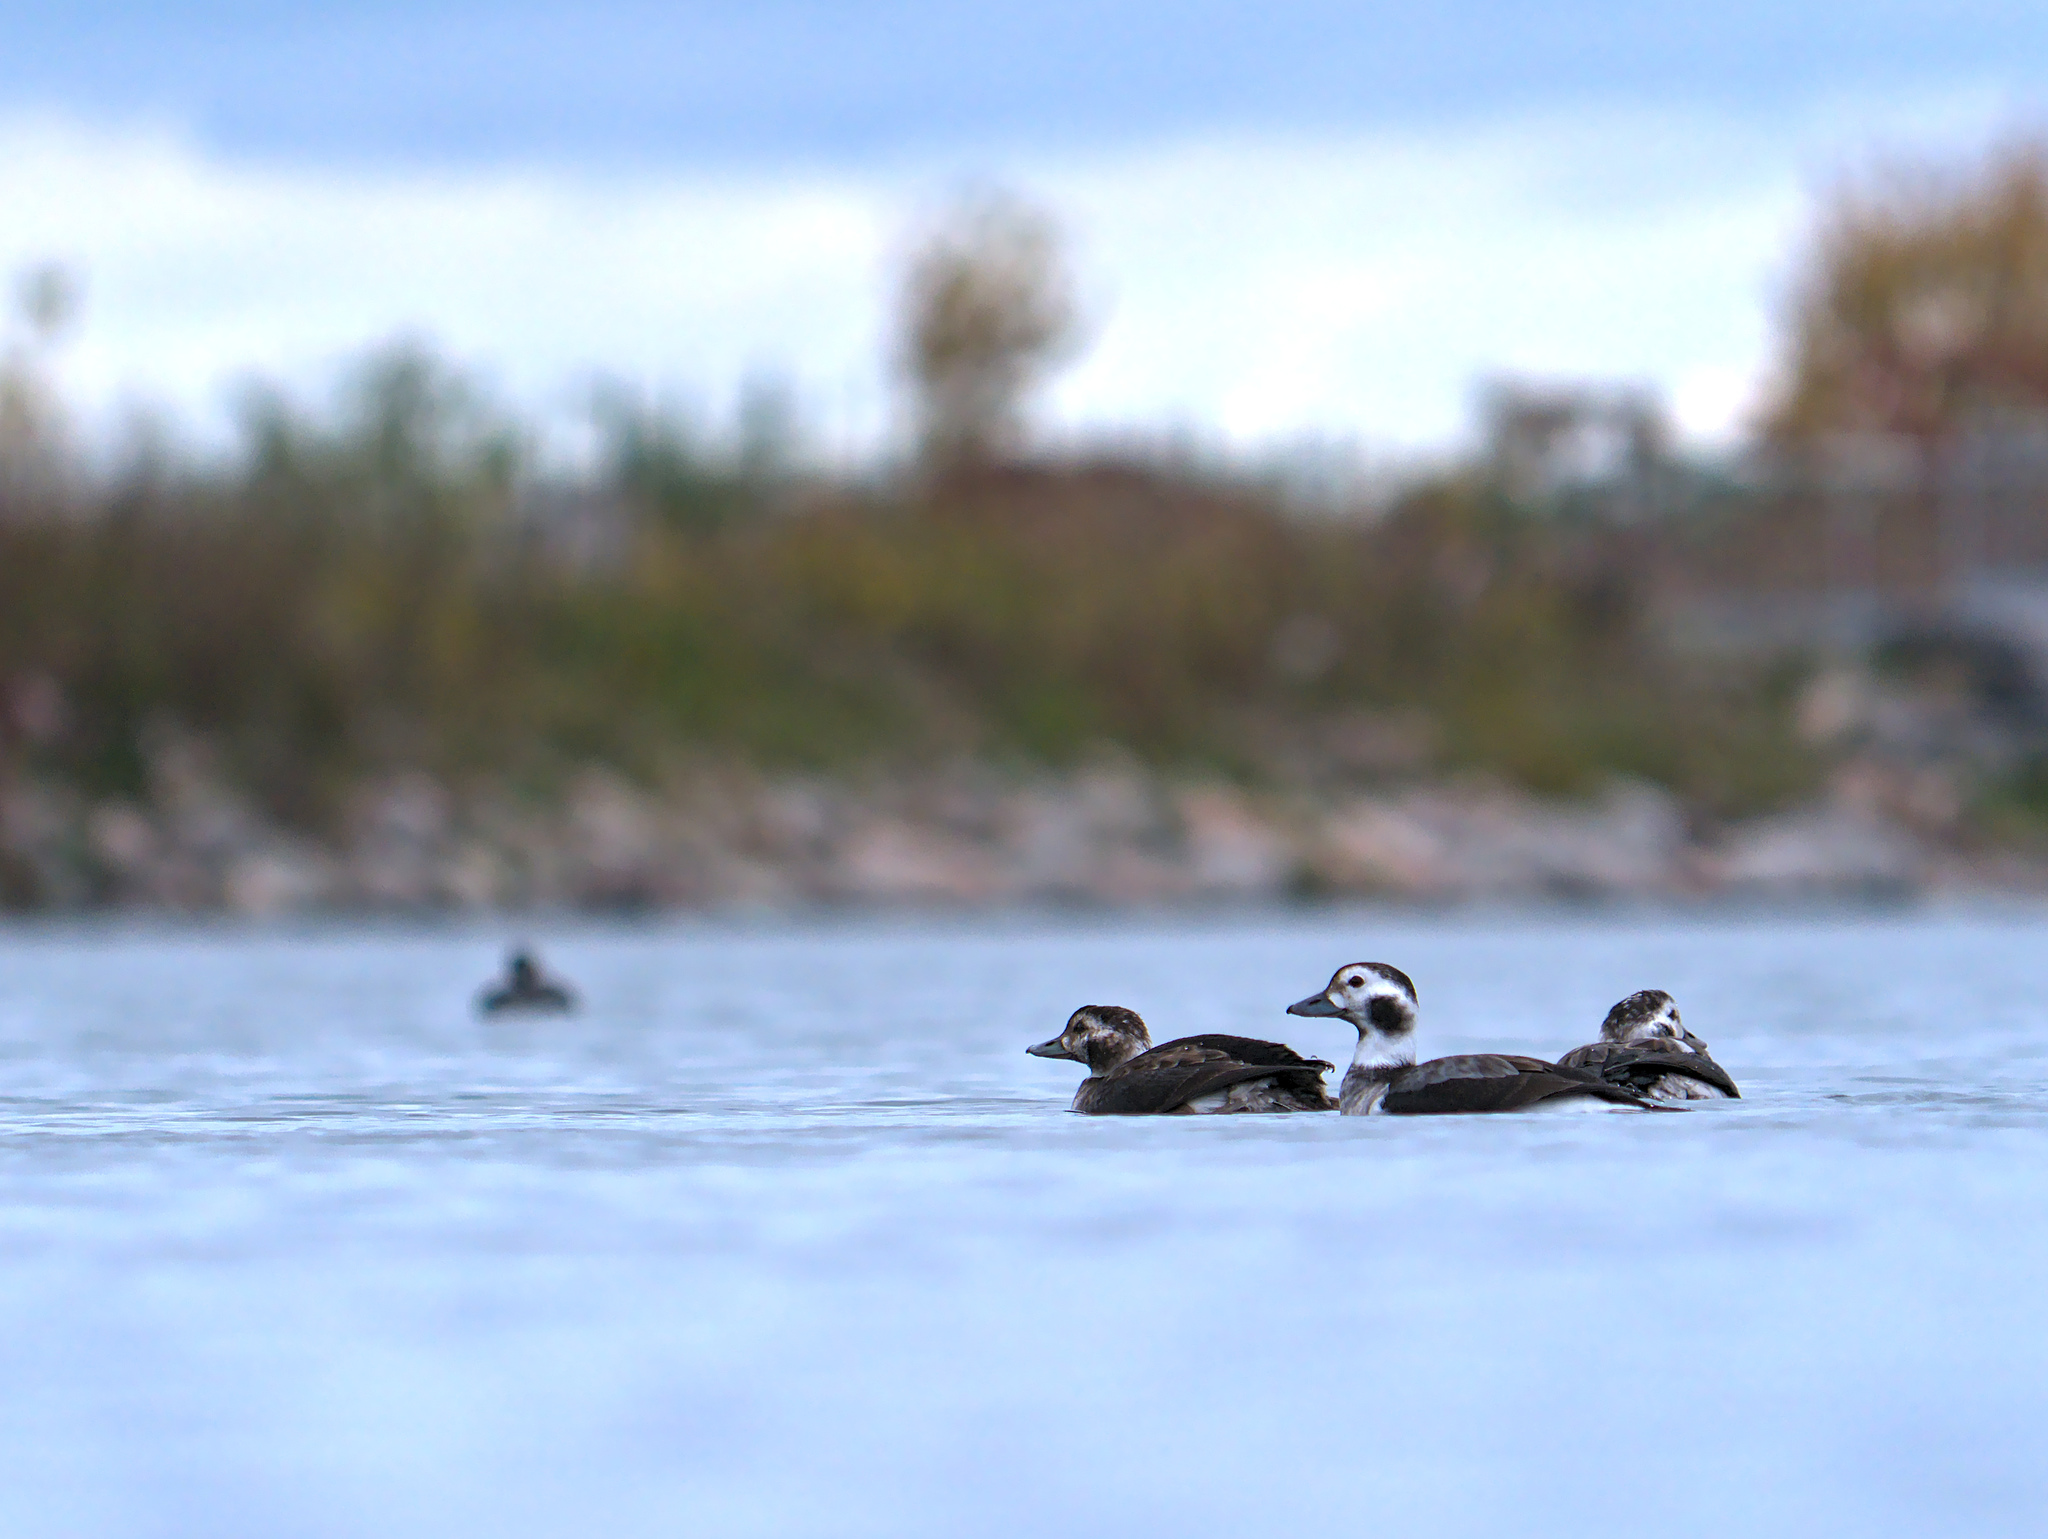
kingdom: Animalia
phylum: Chordata
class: Aves
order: Anseriformes
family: Anatidae
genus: Clangula
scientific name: Clangula hyemalis
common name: Long-tailed duck
